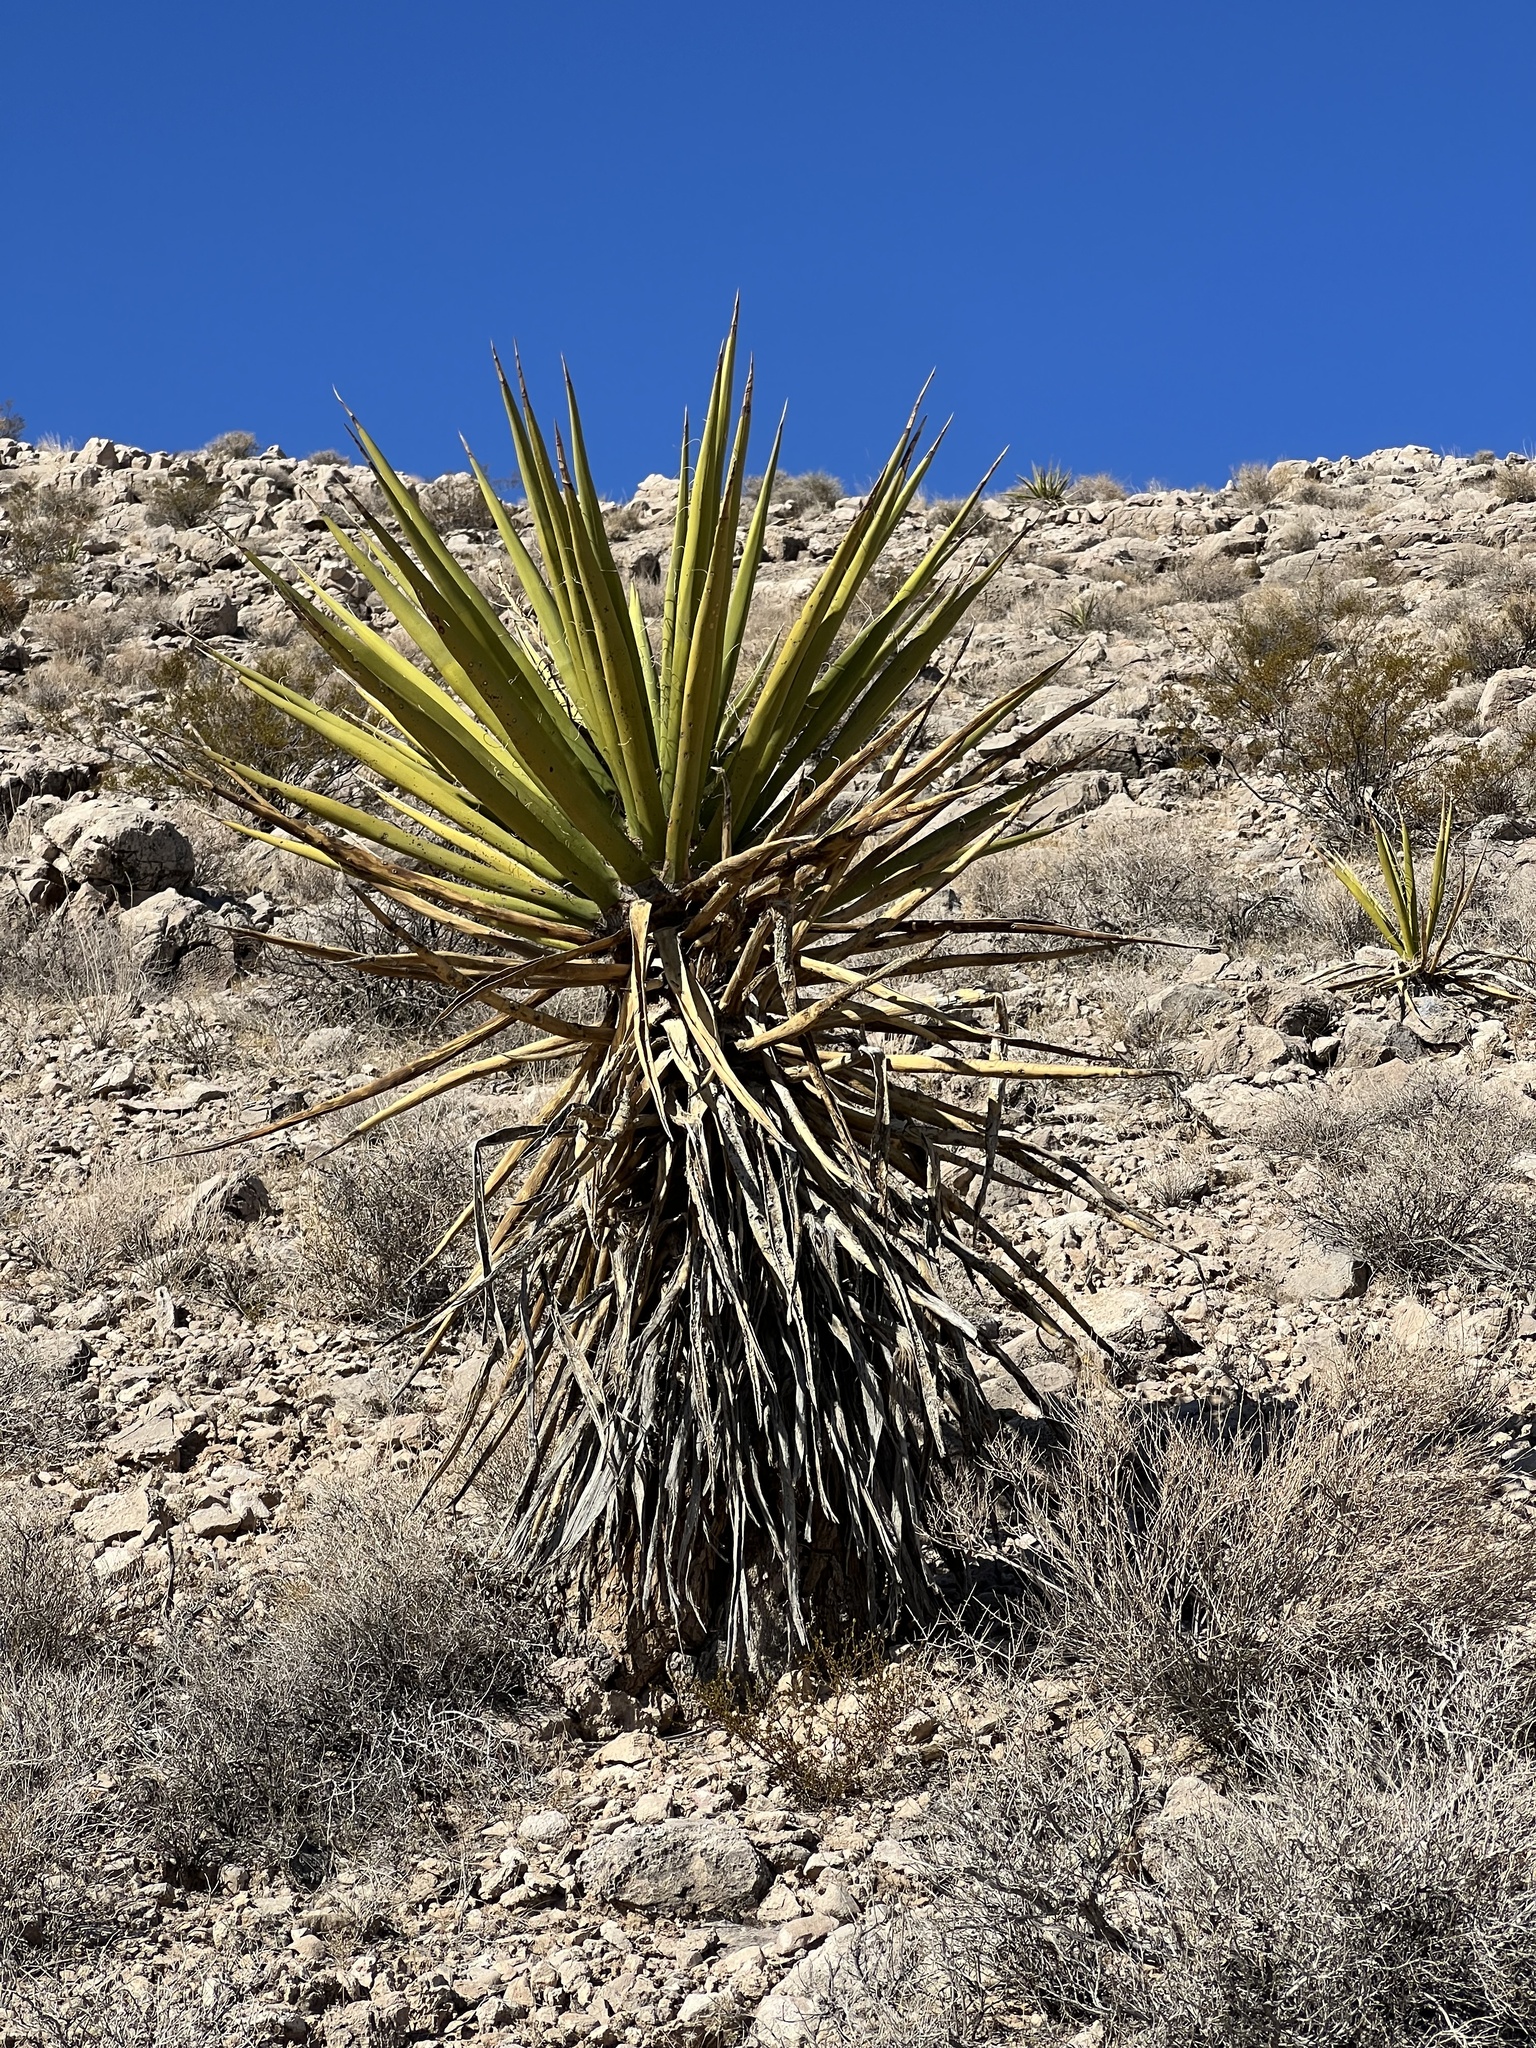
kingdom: Plantae
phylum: Tracheophyta
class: Liliopsida
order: Asparagales
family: Asparagaceae
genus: Yucca
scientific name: Yucca schidigera
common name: Mojave yucca
